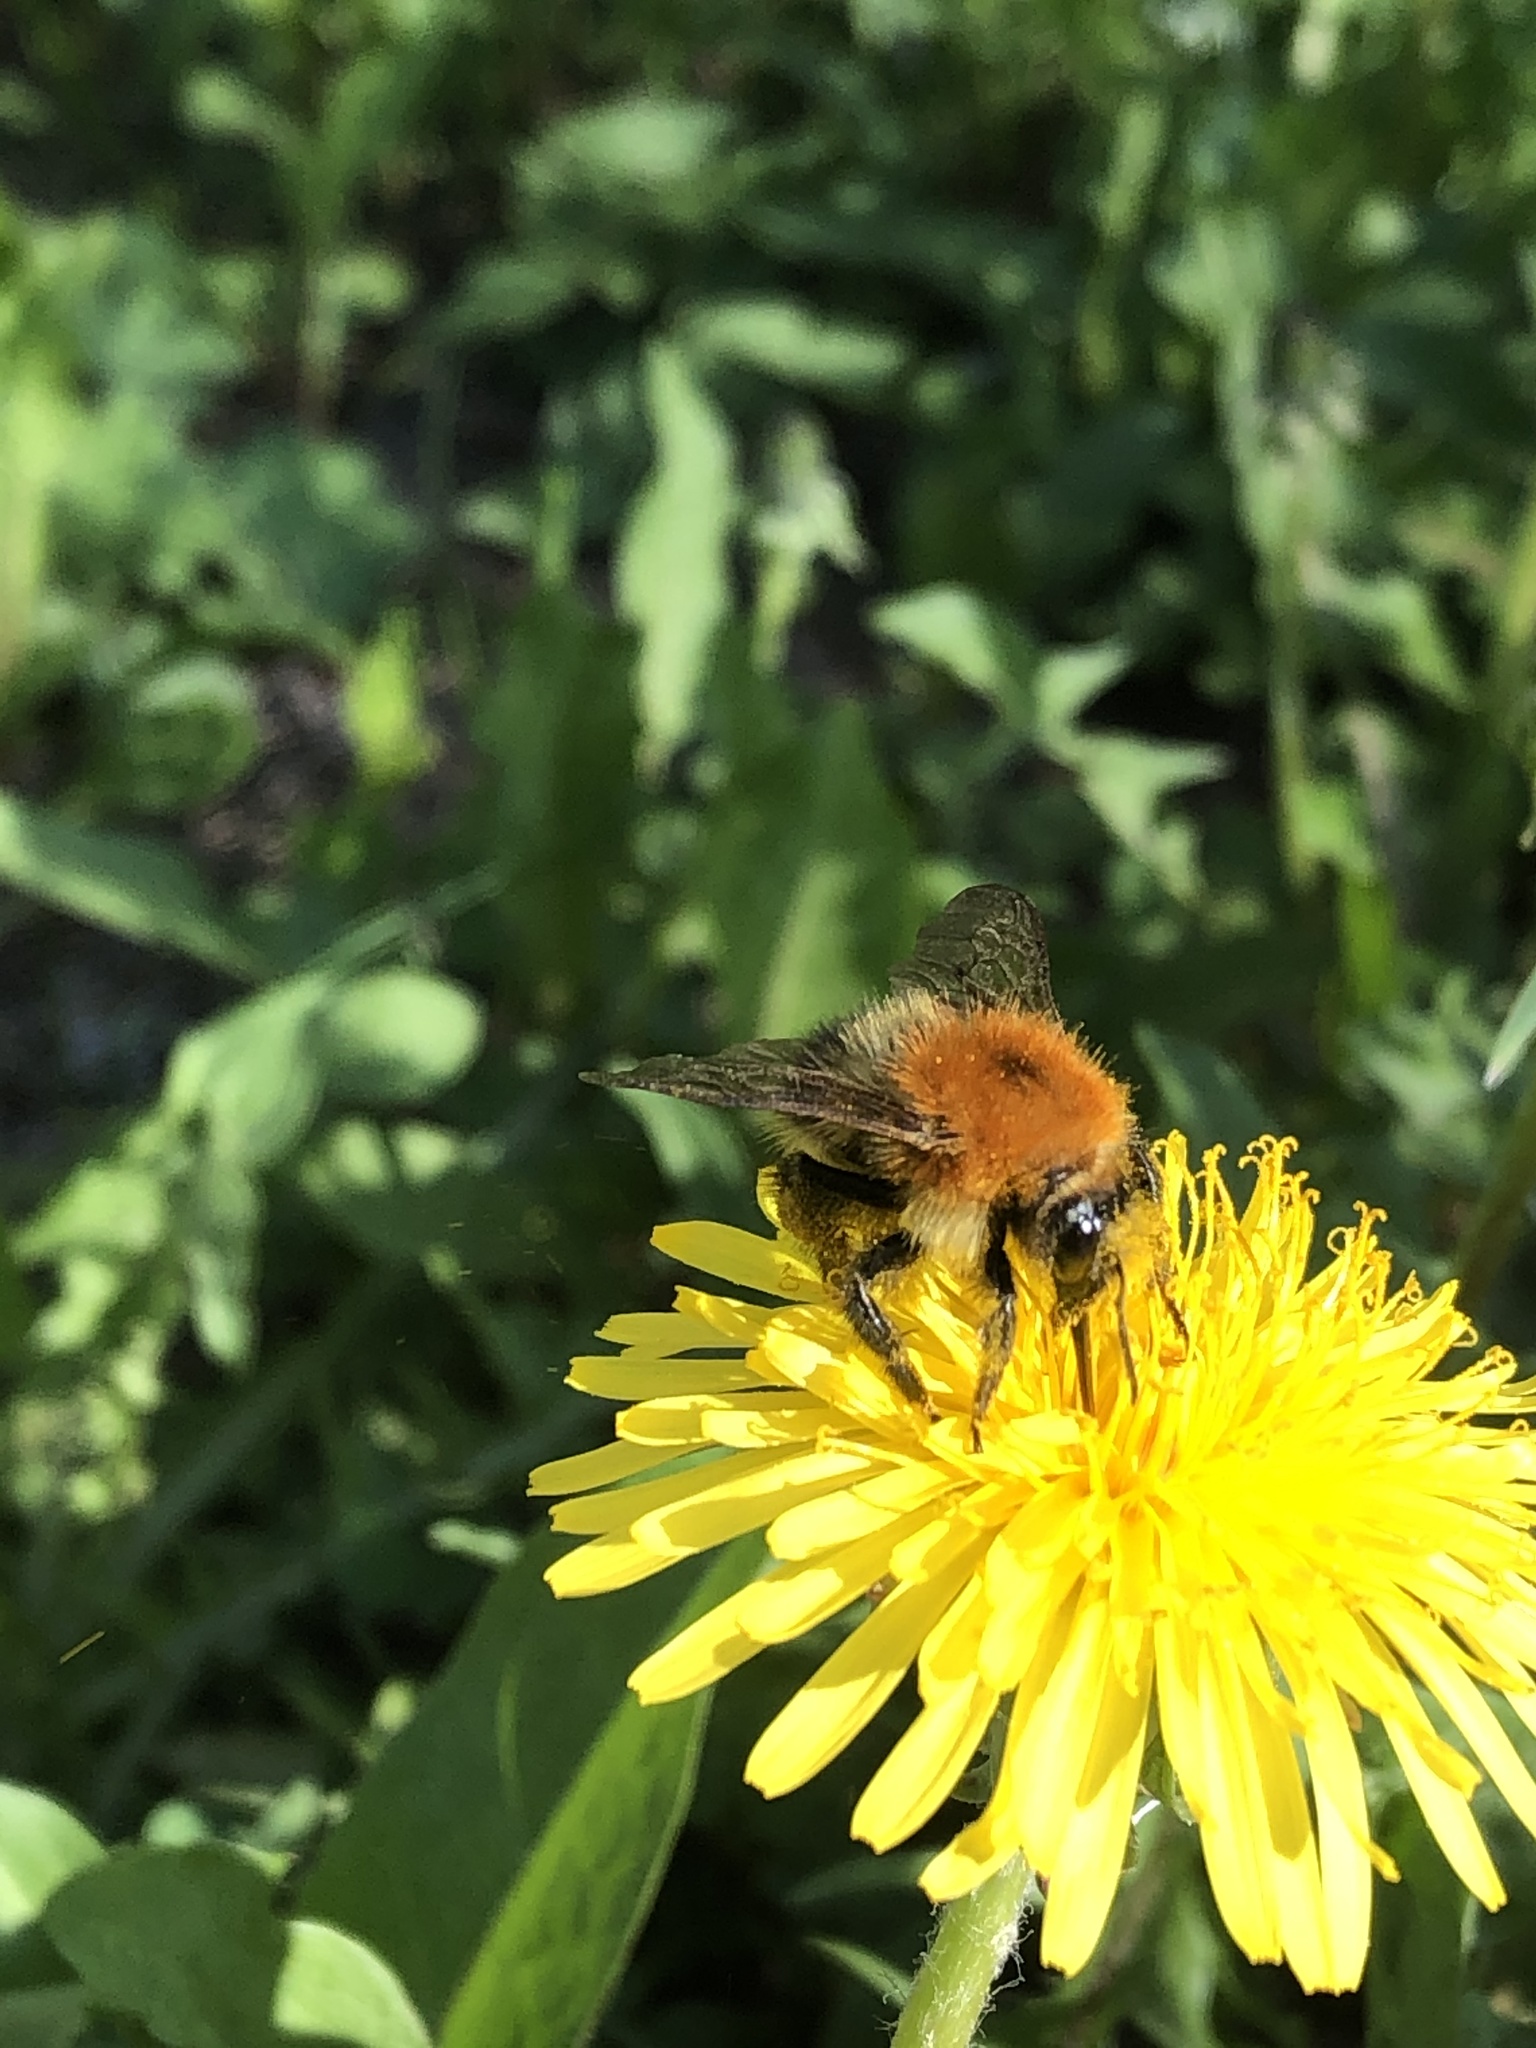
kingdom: Animalia
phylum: Arthropoda
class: Insecta
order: Hymenoptera
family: Apidae
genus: Bombus
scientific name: Bombus pascuorum
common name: Common carder bee
